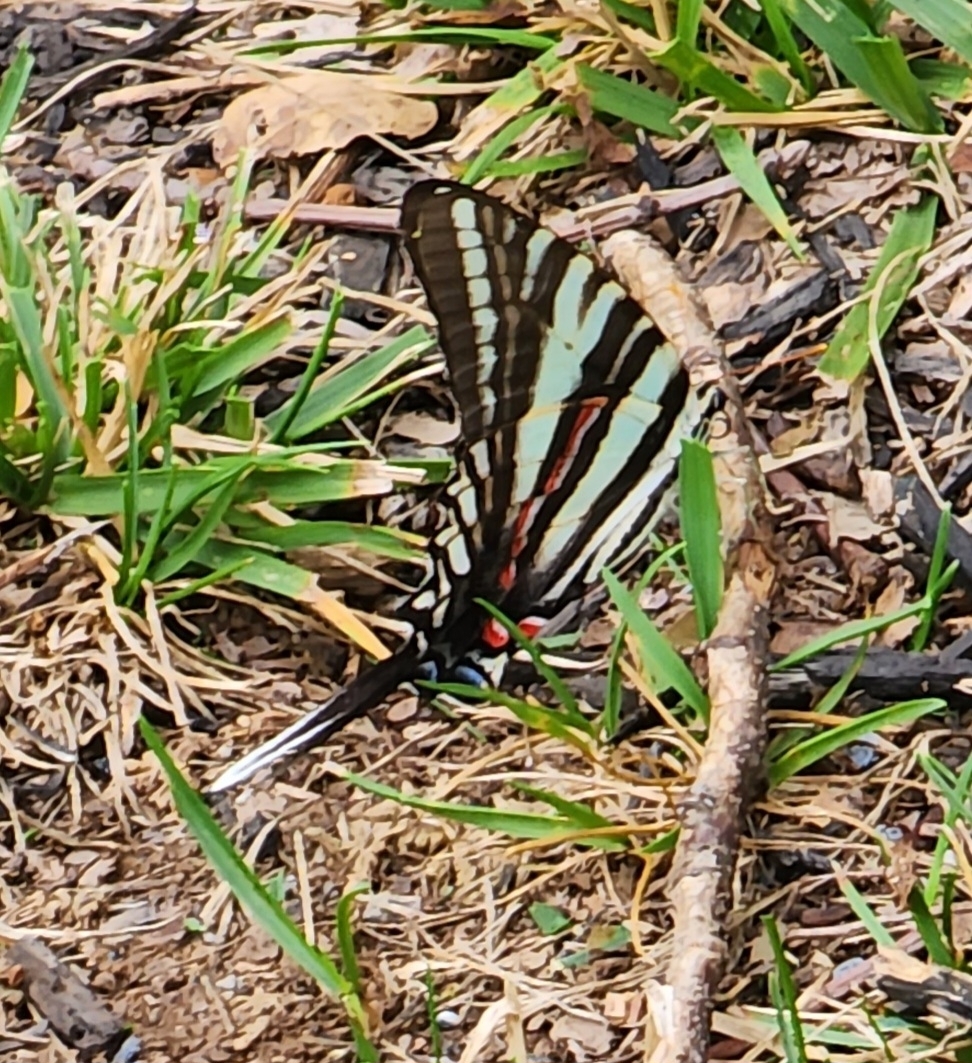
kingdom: Animalia
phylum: Arthropoda
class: Insecta
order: Lepidoptera
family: Papilionidae
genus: Protographium
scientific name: Protographium marcellus
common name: Zebra swallowtail
